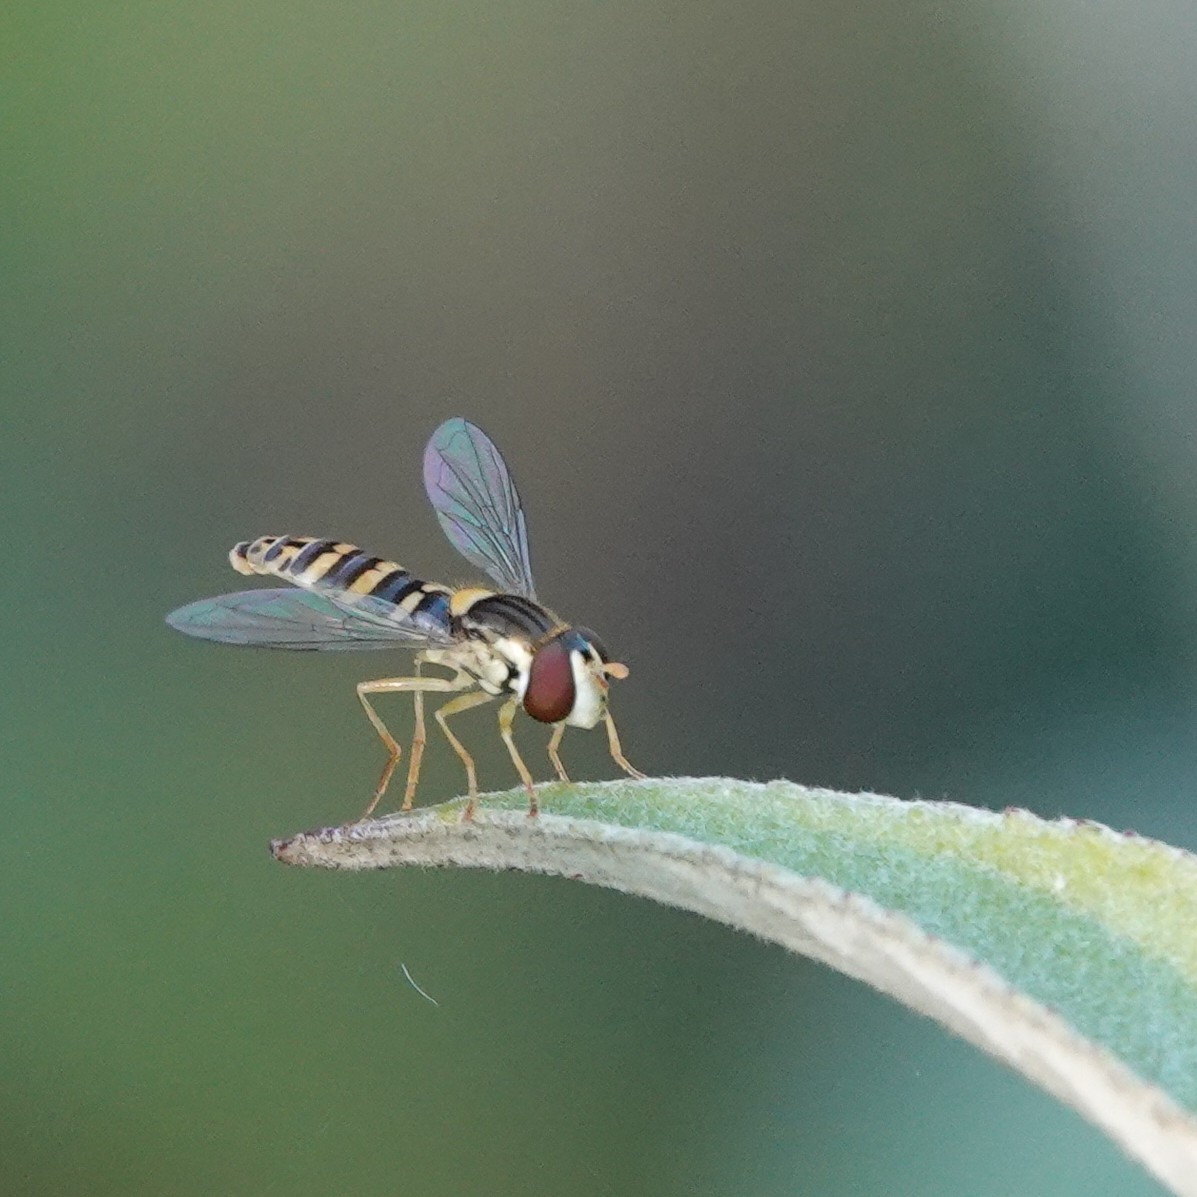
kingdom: Animalia
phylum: Arthropoda
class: Insecta
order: Diptera
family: Syrphidae
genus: Sphaerophoria
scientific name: Sphaerophoria
